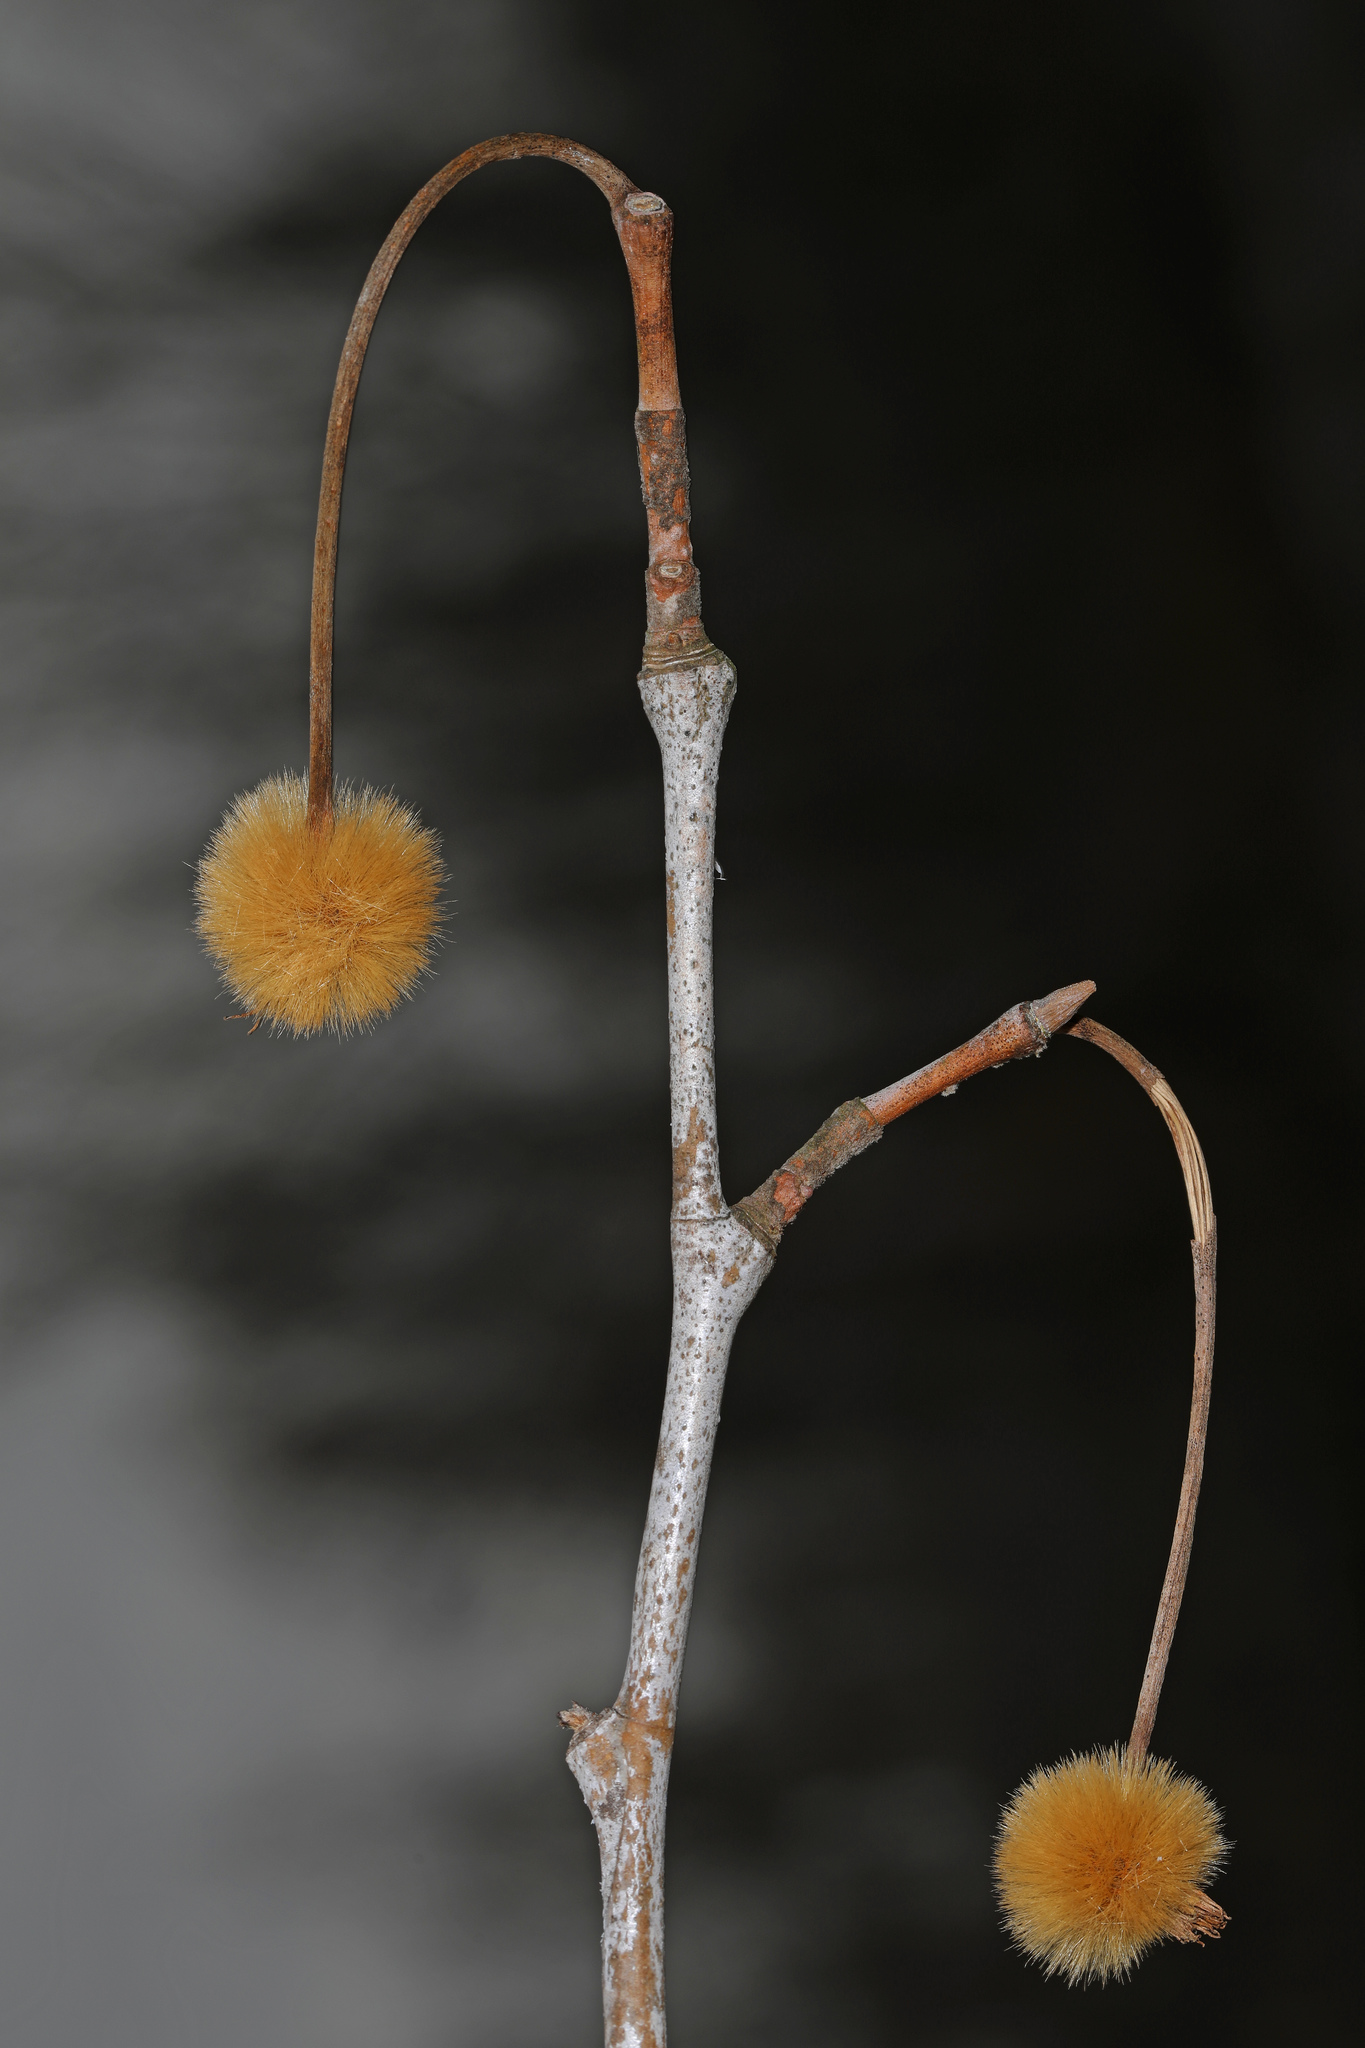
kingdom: Plantae
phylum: Tracheophyta
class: Magnoliopsida
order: Proteales
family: Platanaceae
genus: Platanus
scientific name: Platanus occidentalis
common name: American sycamore
